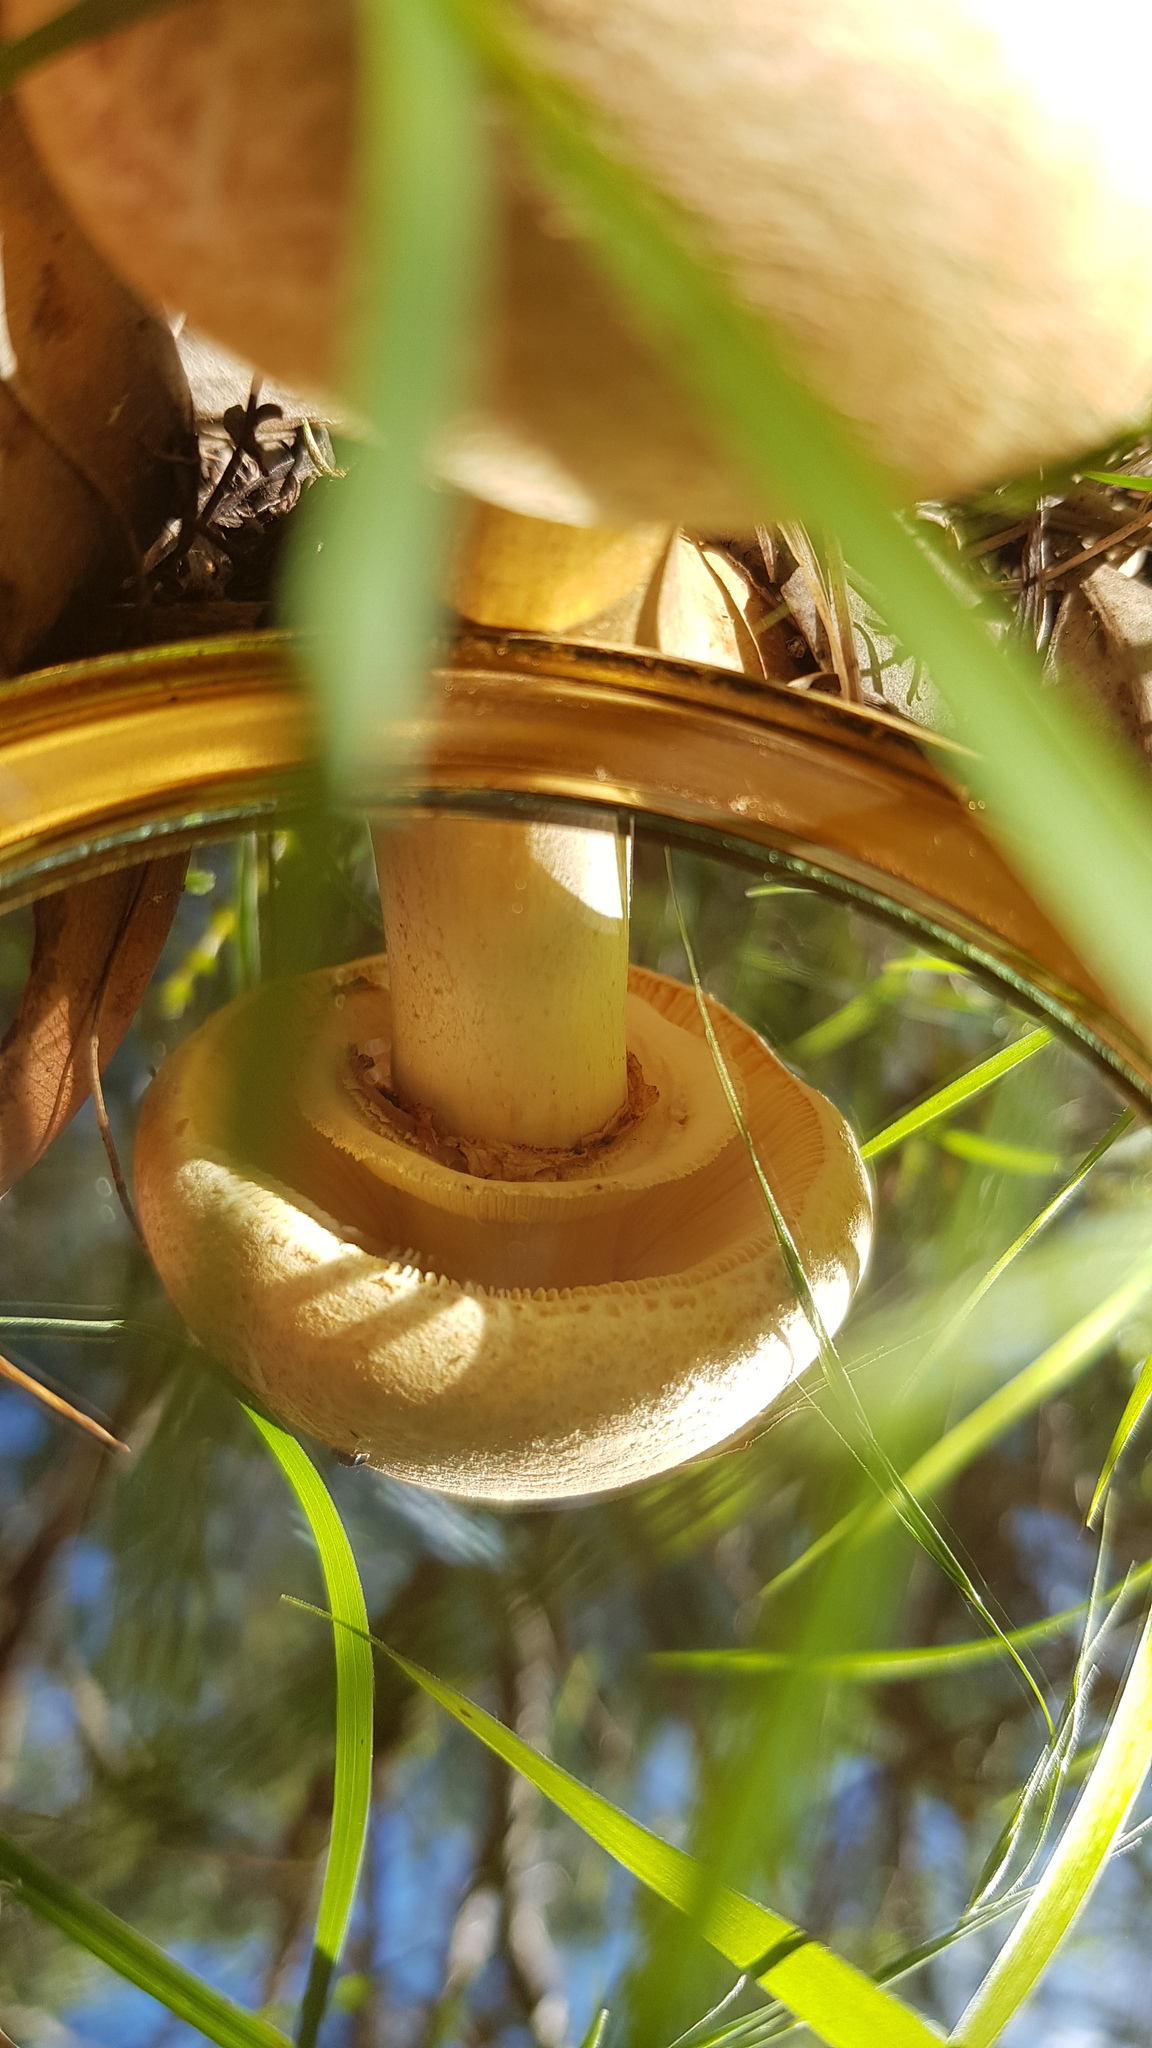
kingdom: Fungi
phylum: Basidiomycota
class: Agaricomycetes
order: Agaricales
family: Amanitaceae
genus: Amanita
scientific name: Amanita ochrophylla
